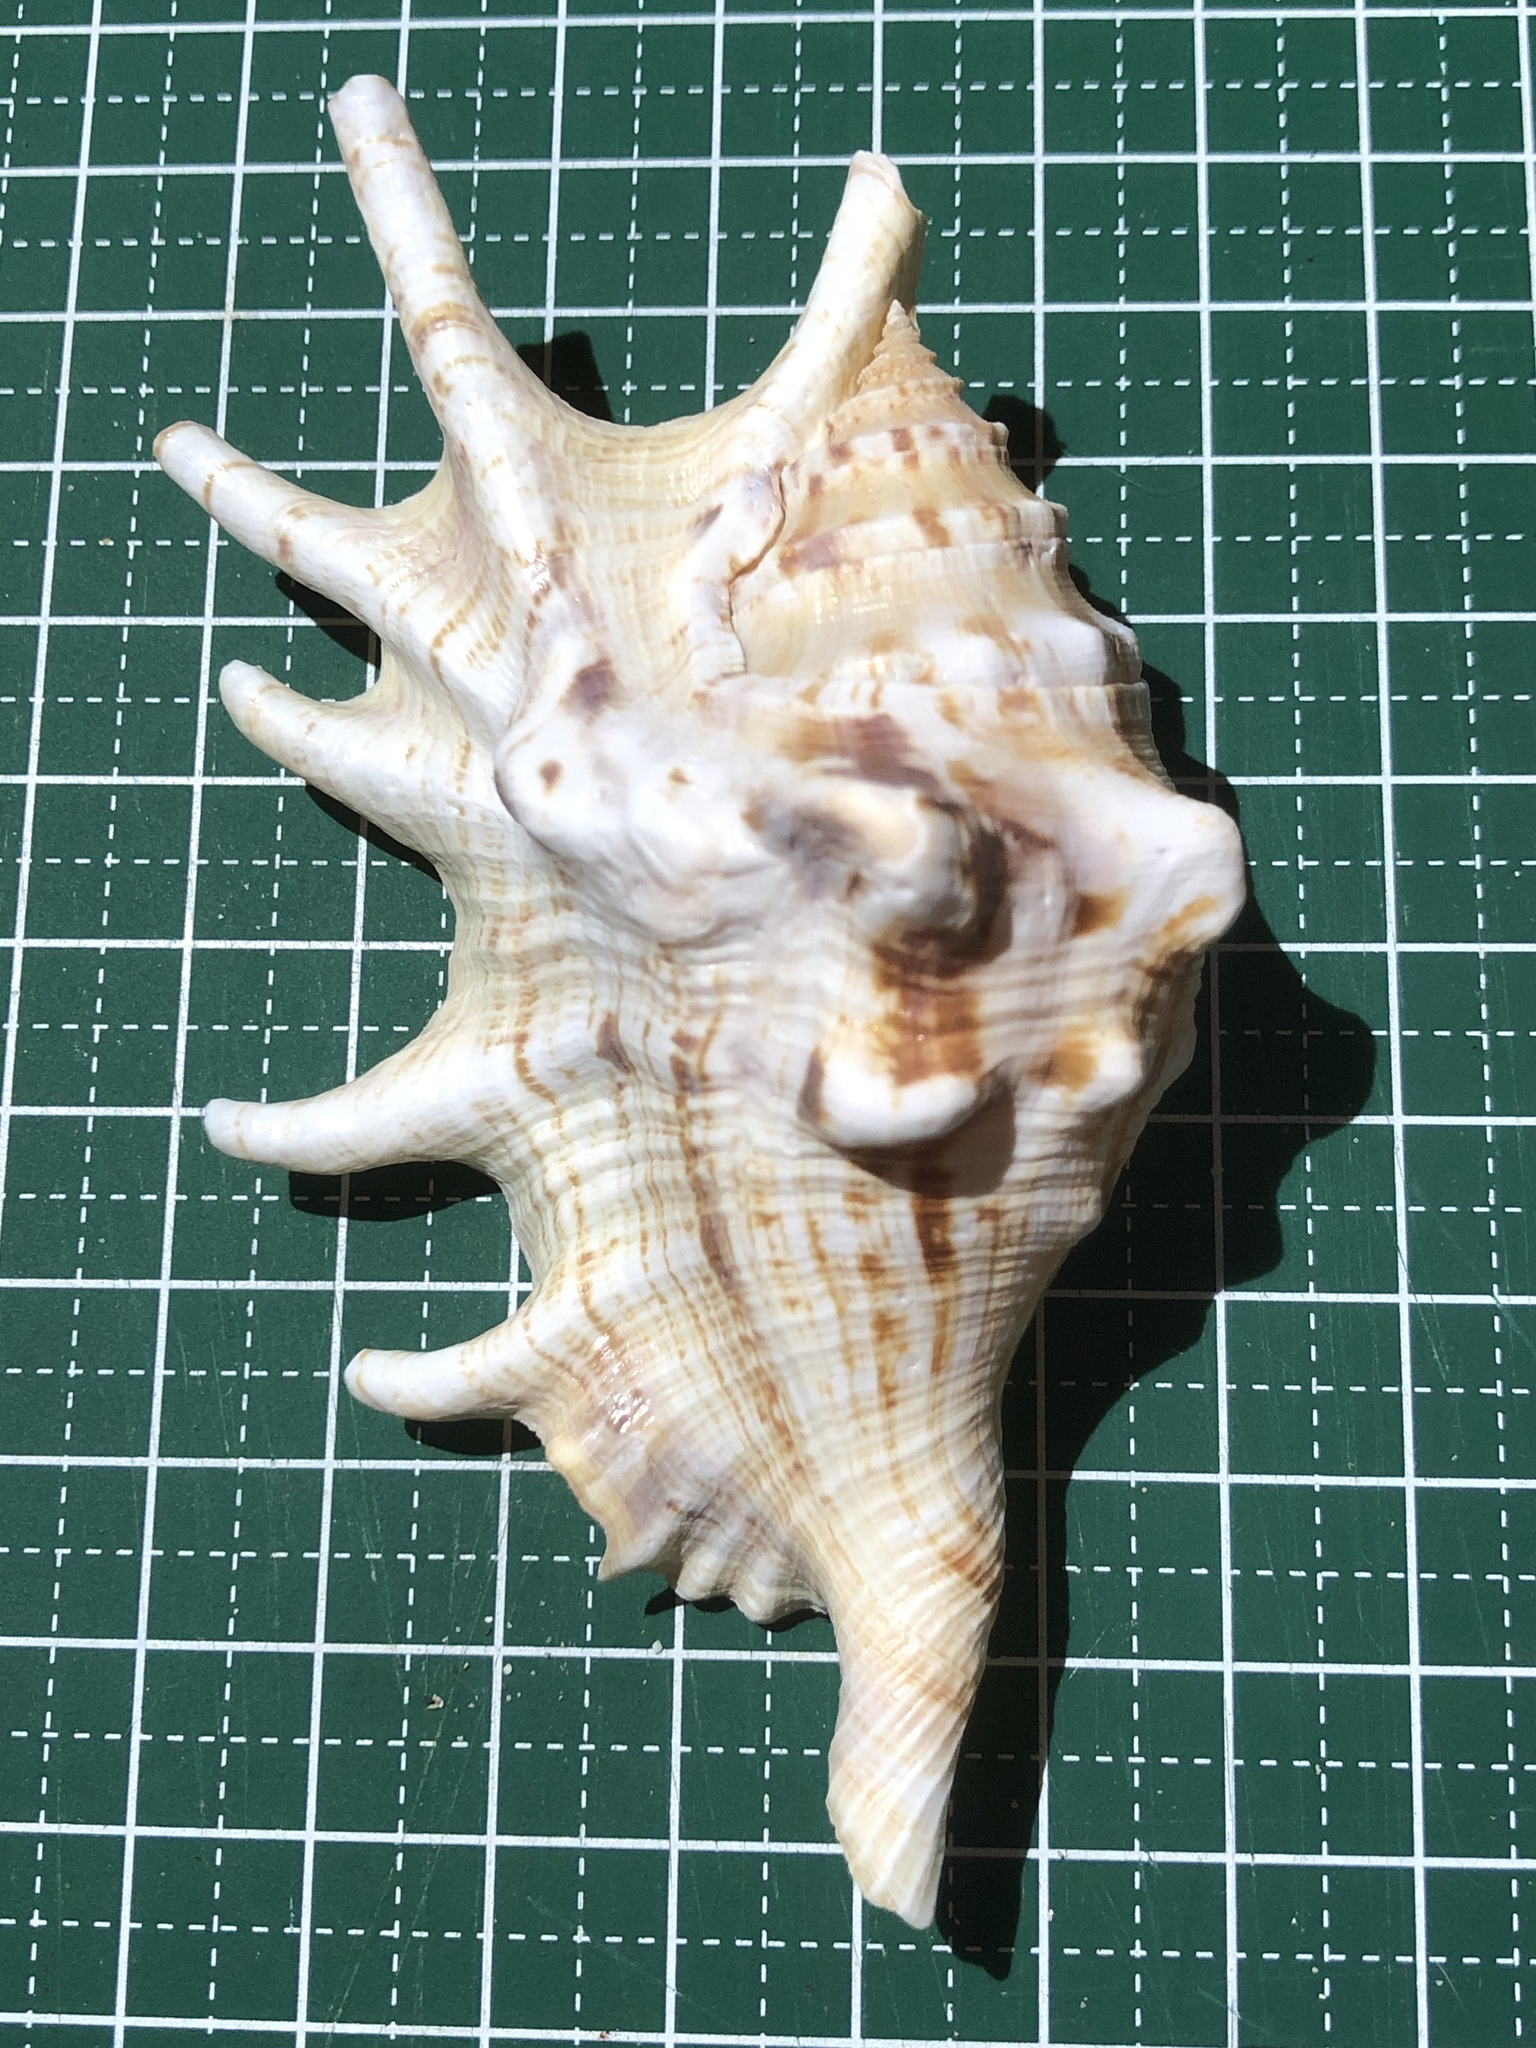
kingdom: Animalia
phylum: Mollusca
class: Gastropoda
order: Littorinimorpha
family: Strombidae
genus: Lambis
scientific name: Lambis lambis
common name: Common spider conch
